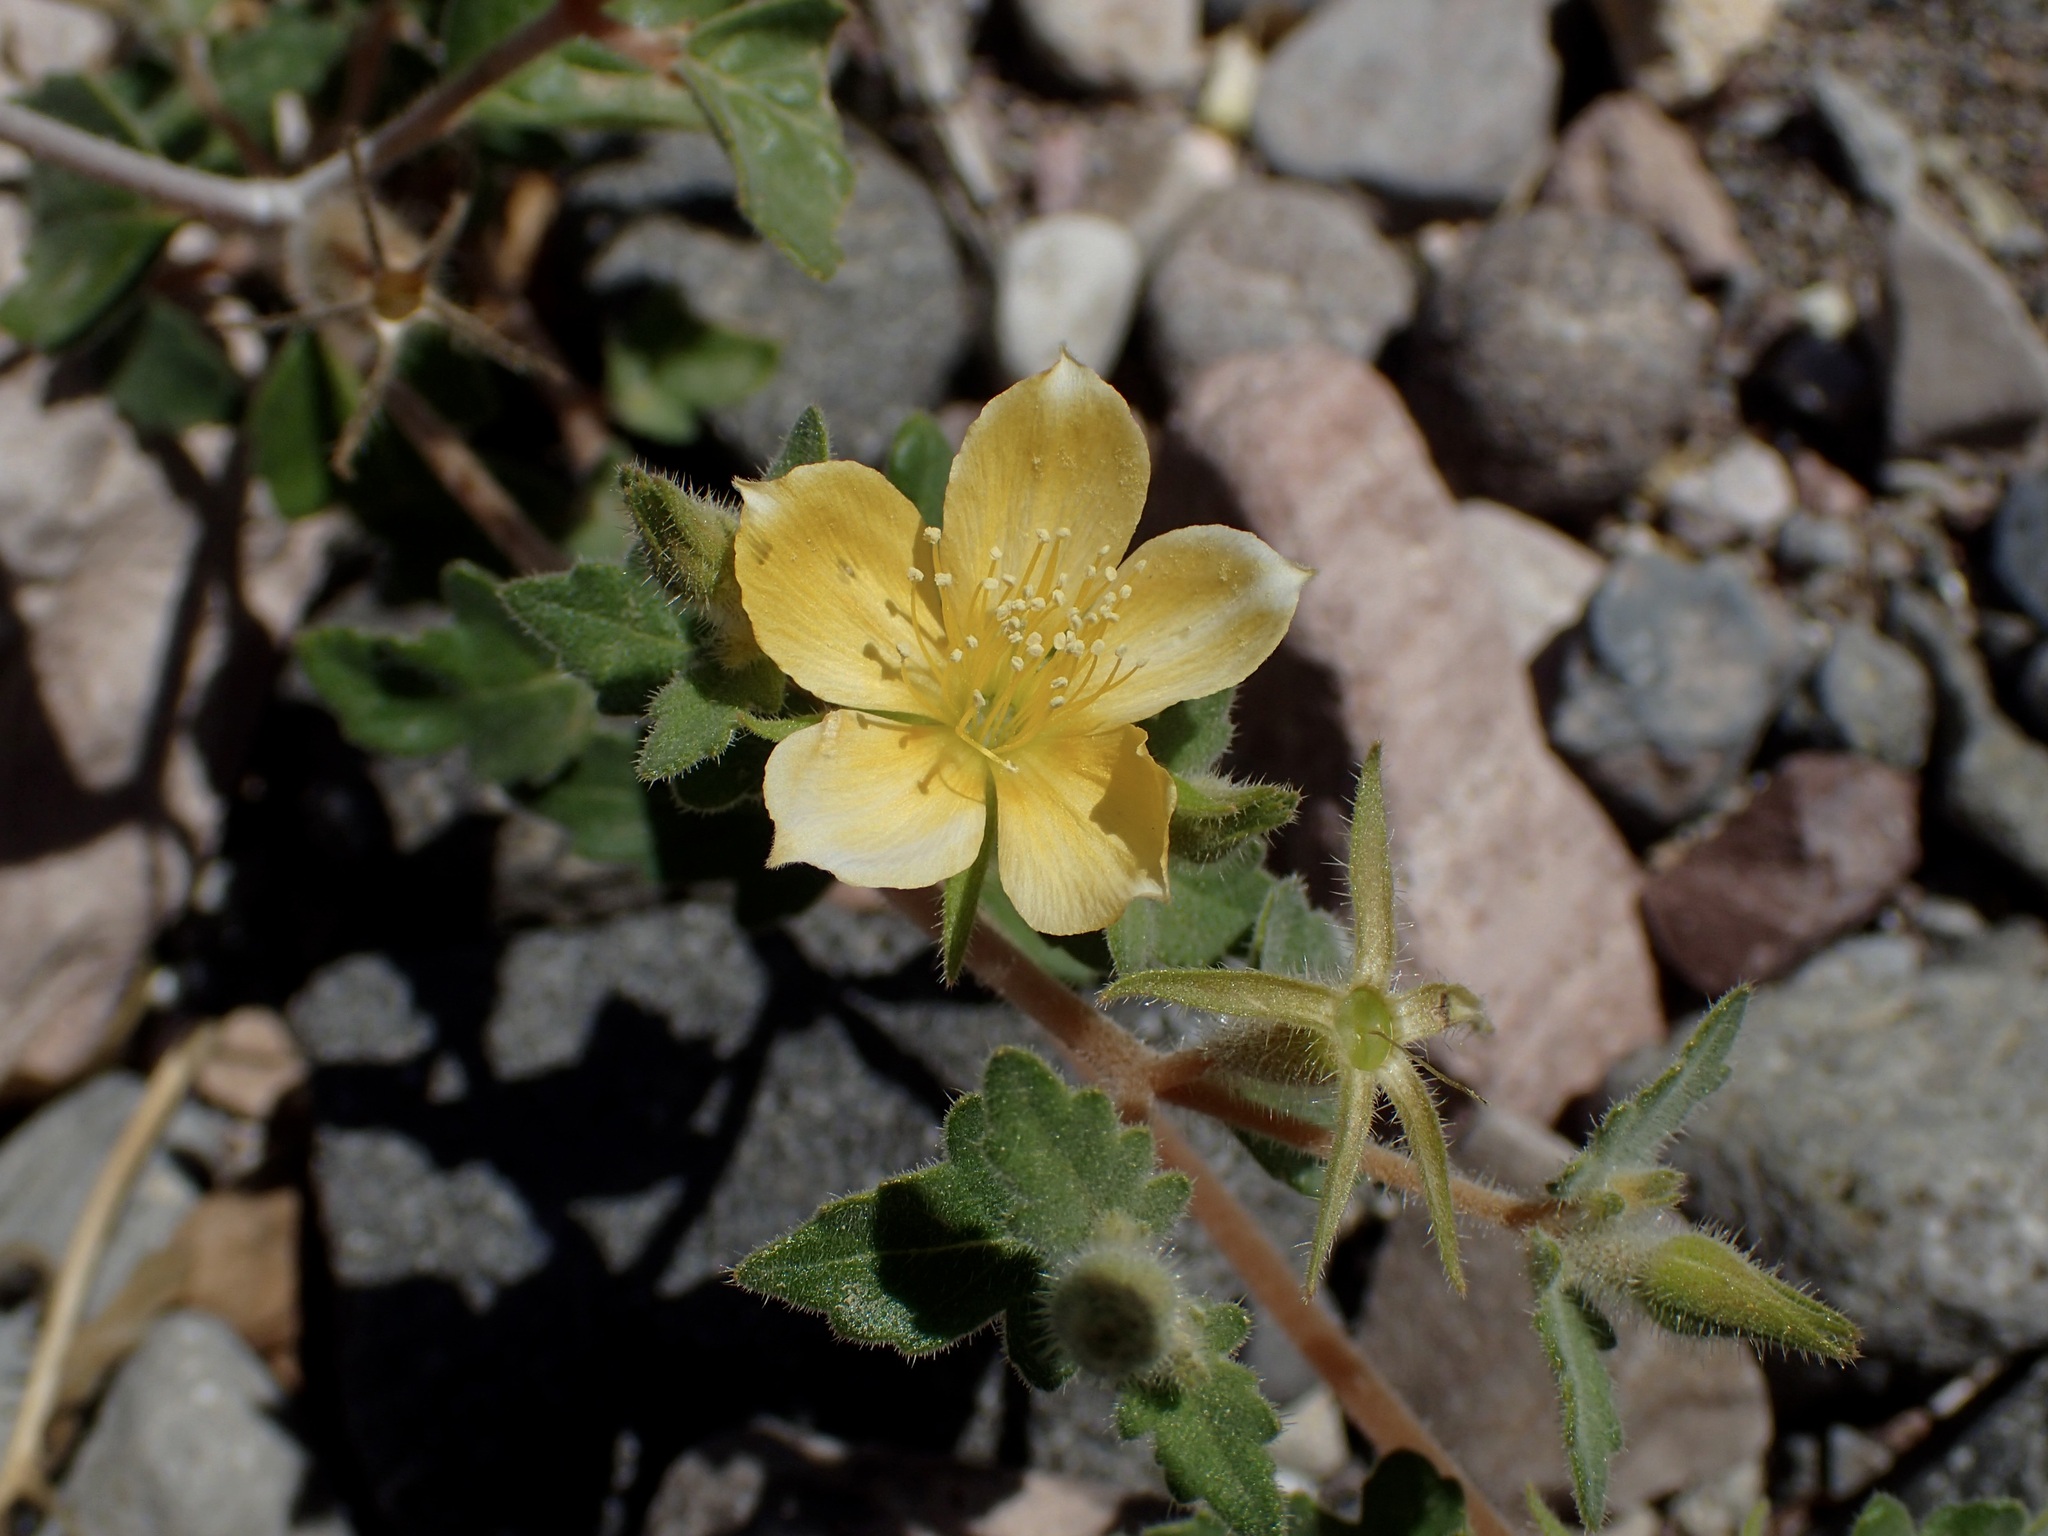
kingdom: Plantae
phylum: Tracheophyta
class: Magnoliopsida
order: Cornales
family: Loasaceae
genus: Mentzelia
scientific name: Mentzelia adhaerens
